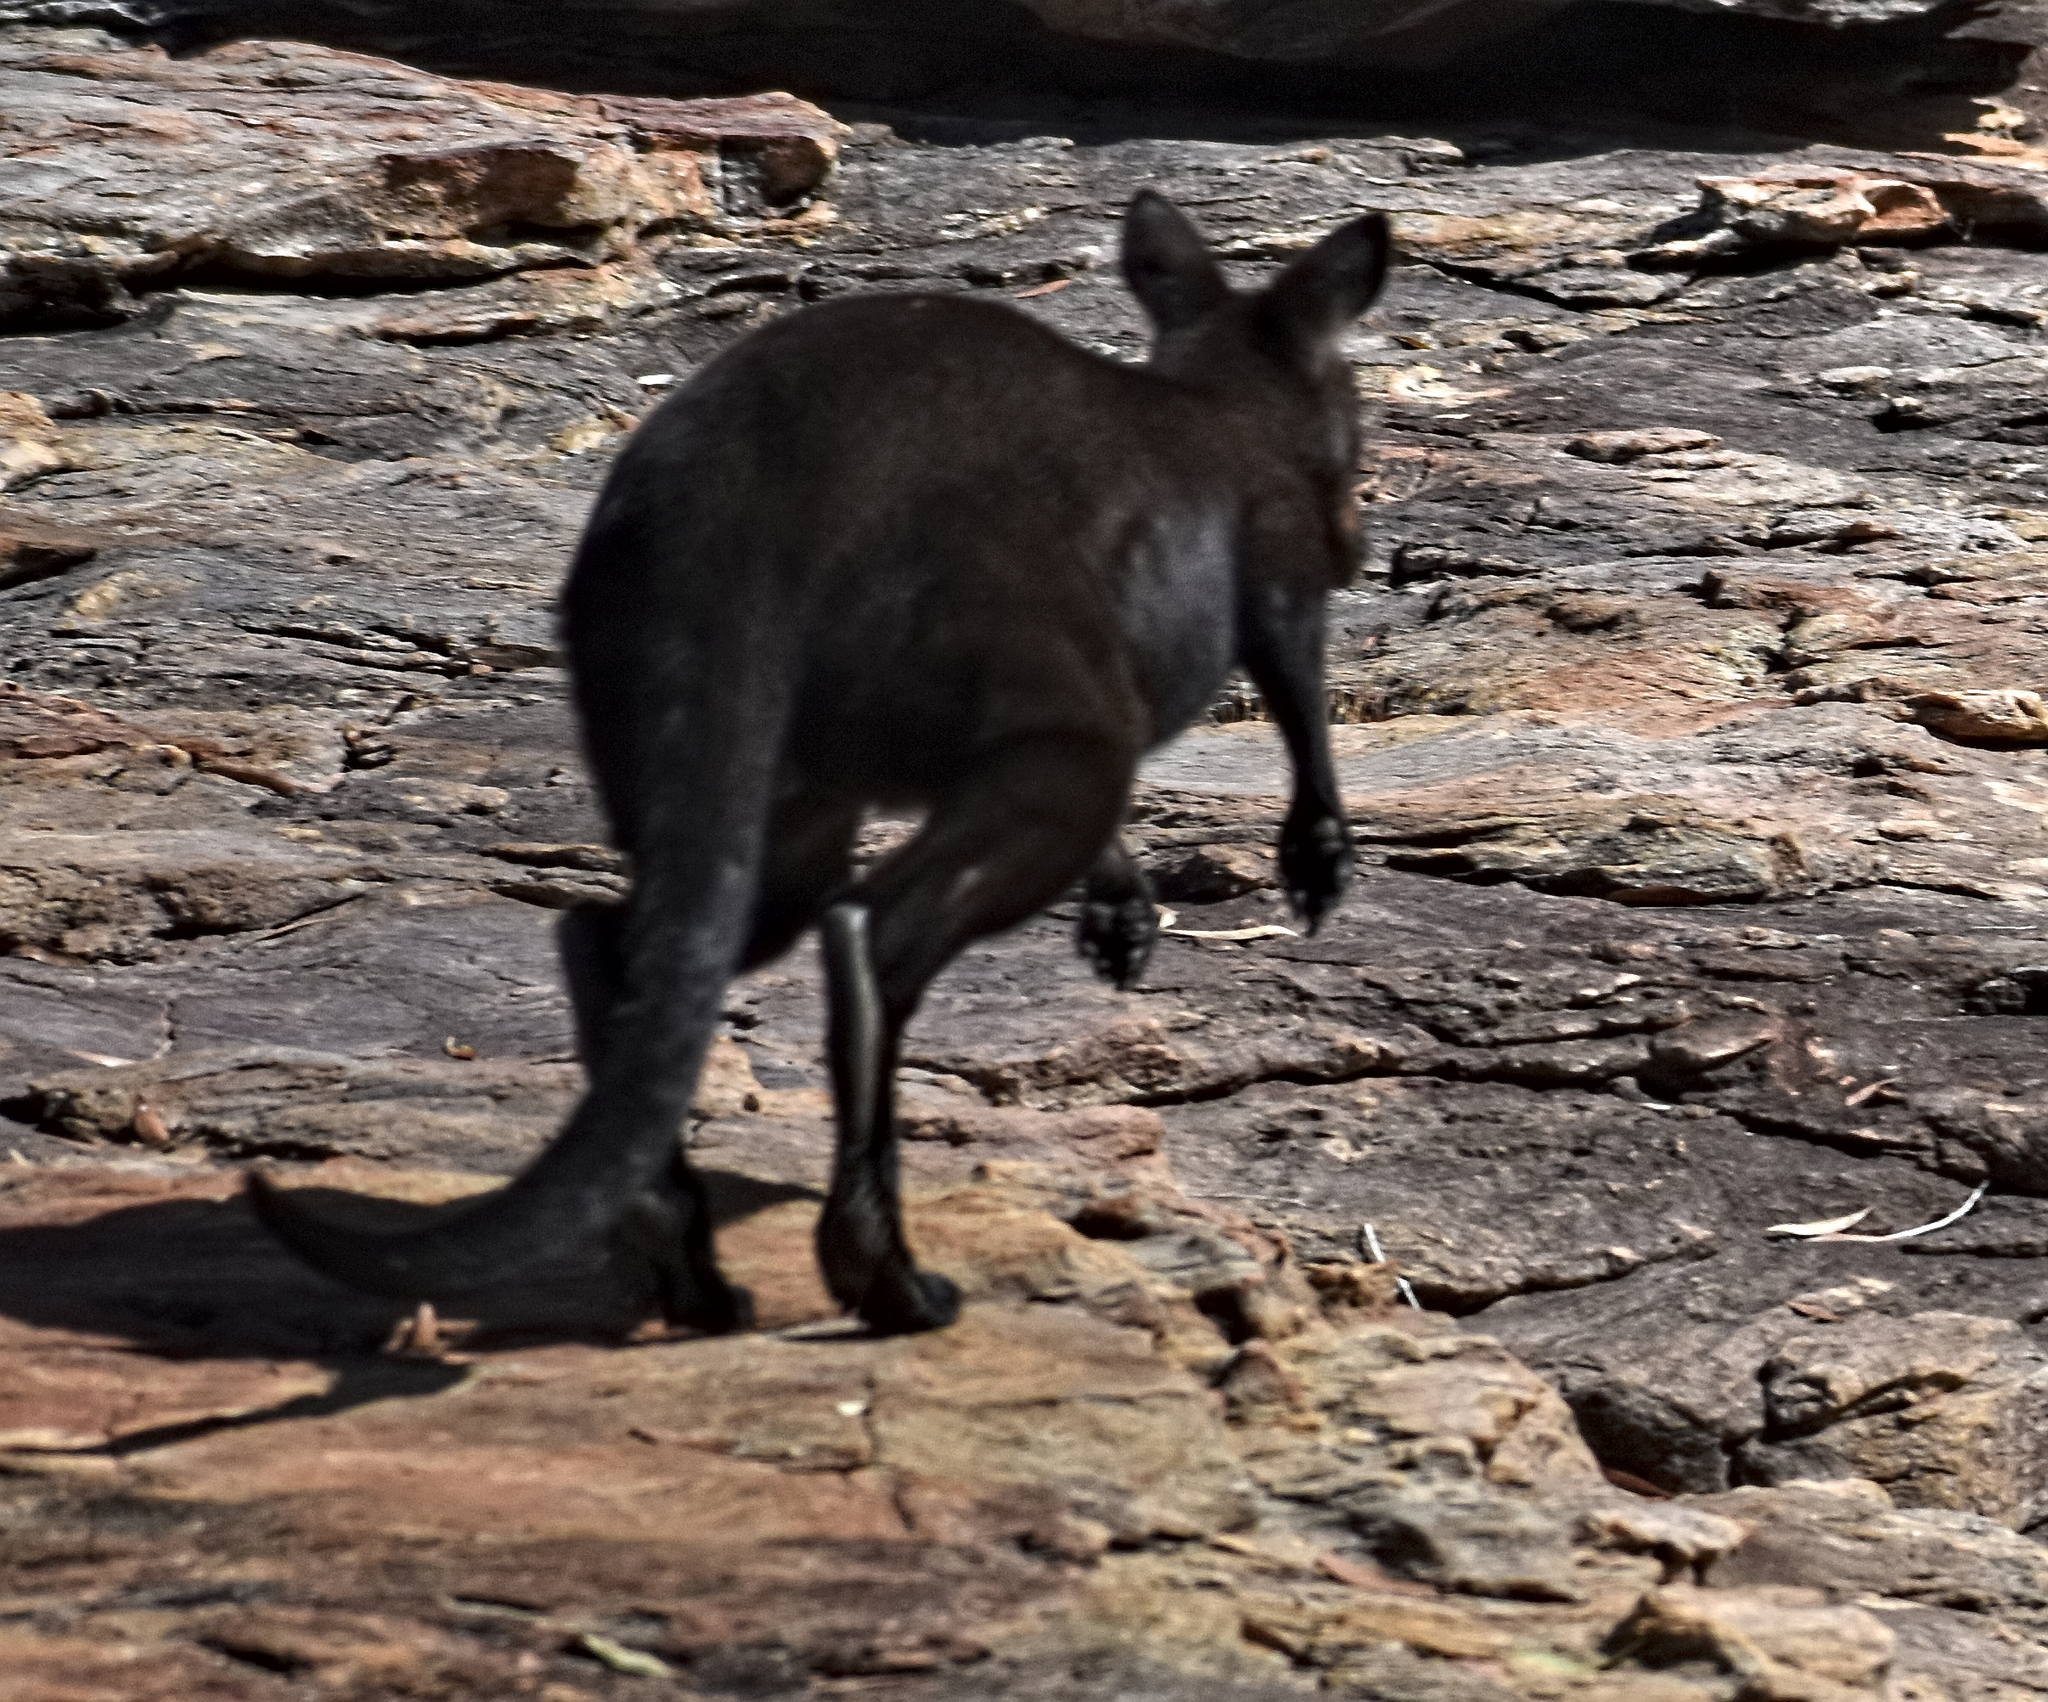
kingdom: Animalia
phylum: Chordata
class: Mammalia
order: Diprotodontia
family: Macropodidae
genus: Macropus
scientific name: Macropus bernardus
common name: Woodward's wallaroo
